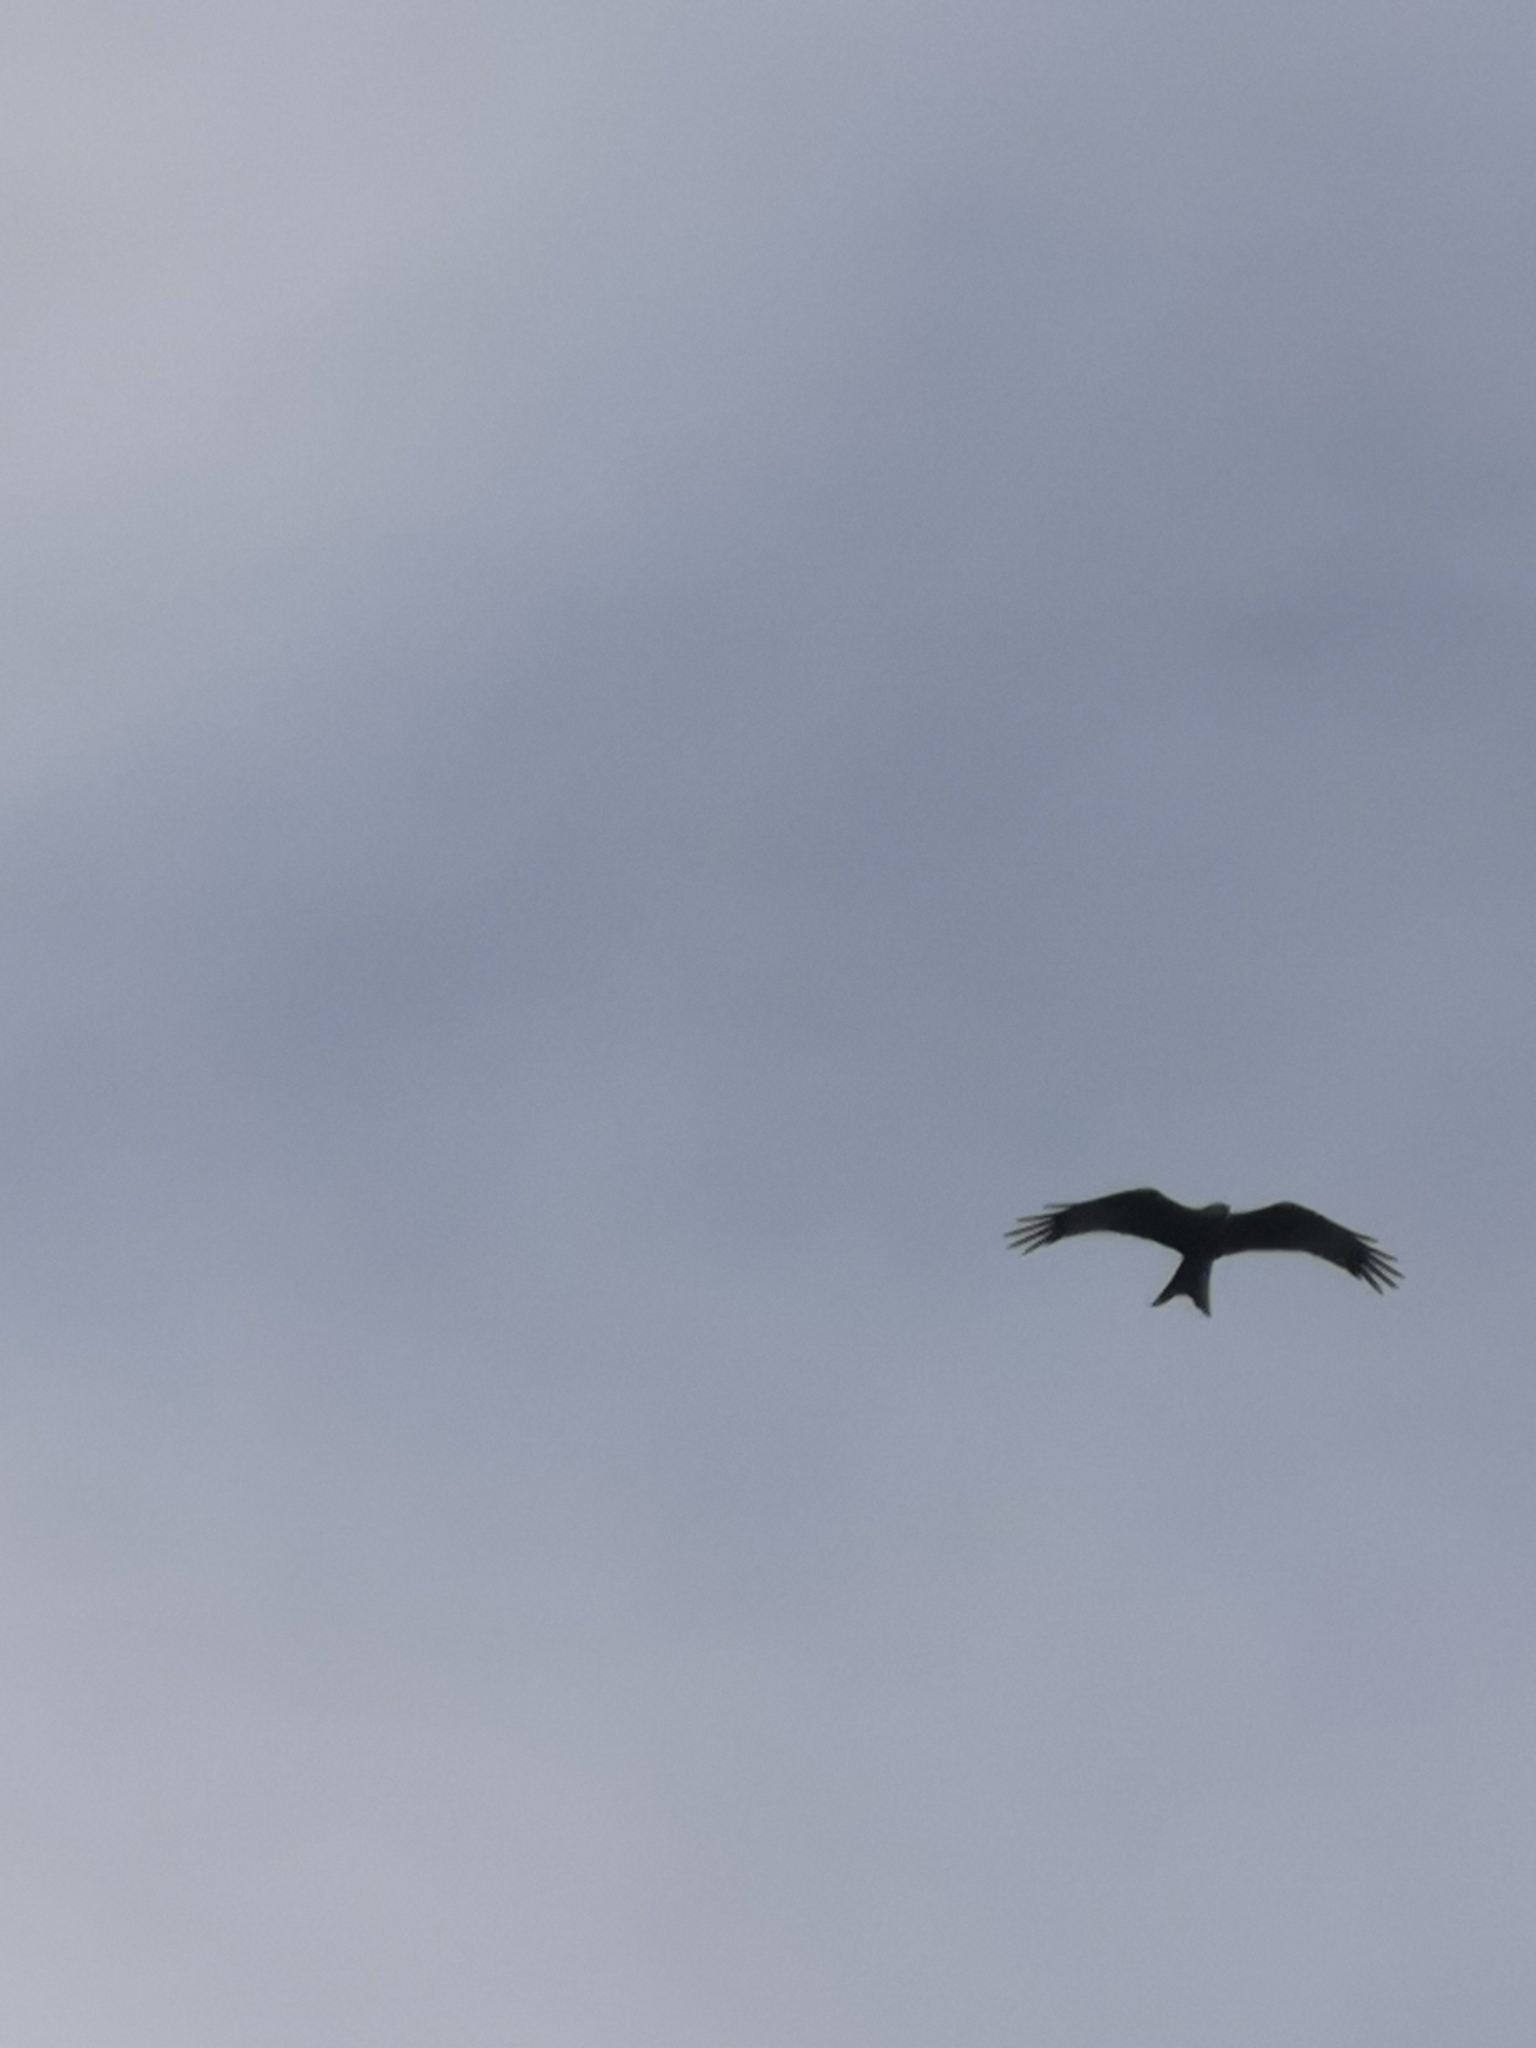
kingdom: Animalia
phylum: Chordata
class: Aves
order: Accipitriformes
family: Accipitridae
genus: Milvus
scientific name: Milvus milvus
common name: Red kite
